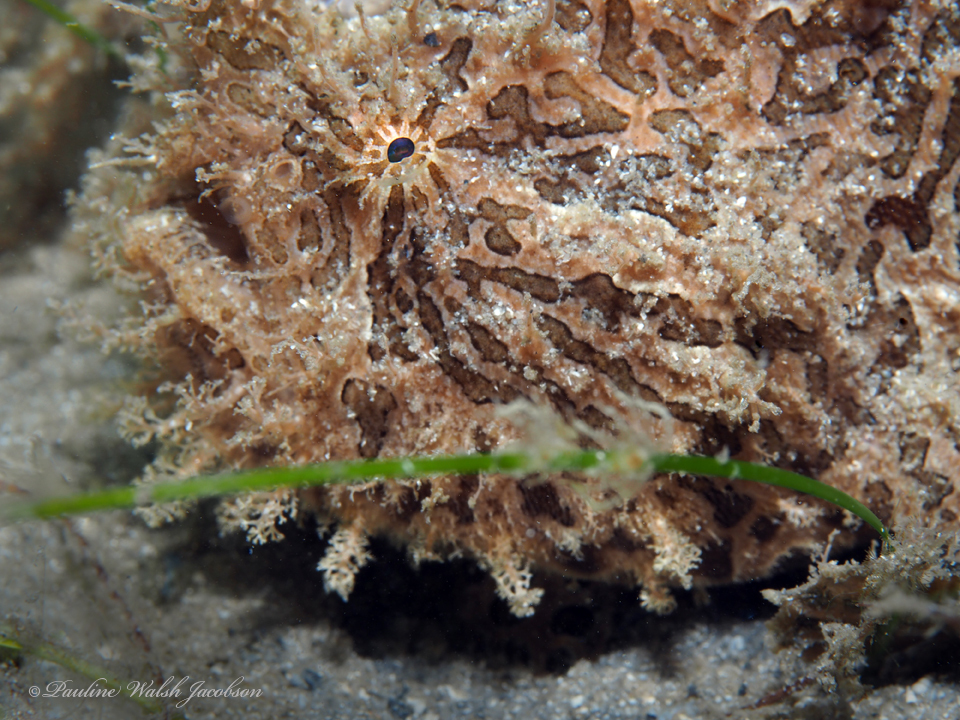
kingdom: Animalia
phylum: Chordata
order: Lophiiformes
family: Antennariidae
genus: Antennarius
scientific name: Antennarius striatus
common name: Striated frogfish
